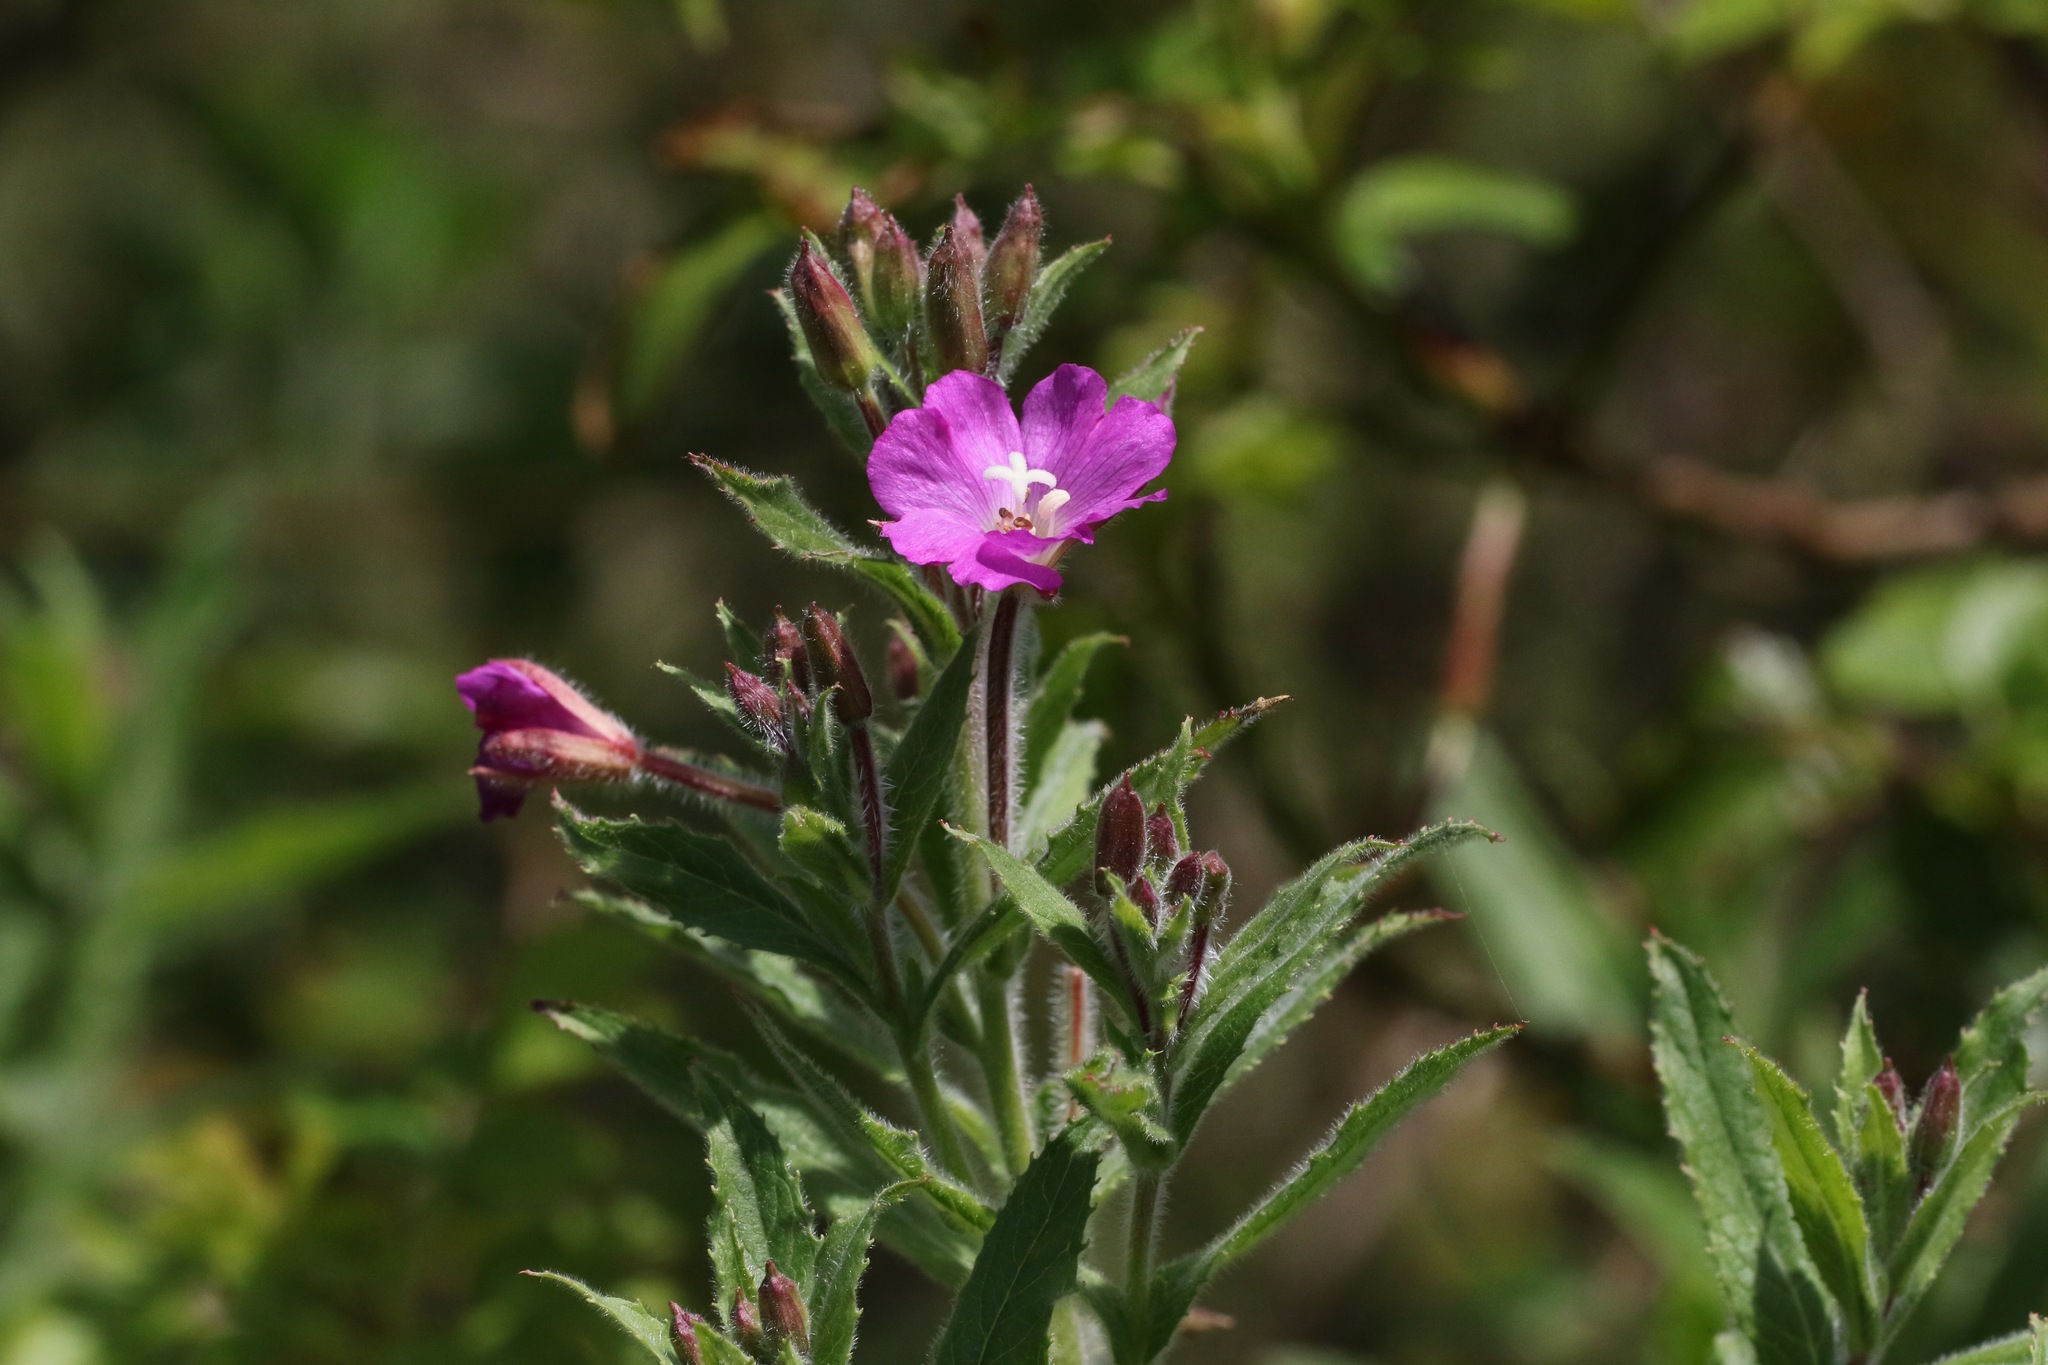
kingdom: Plantae
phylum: Tracheophyta
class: Magnoliopsida
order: Myrtales
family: Onagraceae
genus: Epilobium
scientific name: Epilobium hirsutum
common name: Great willowherb
